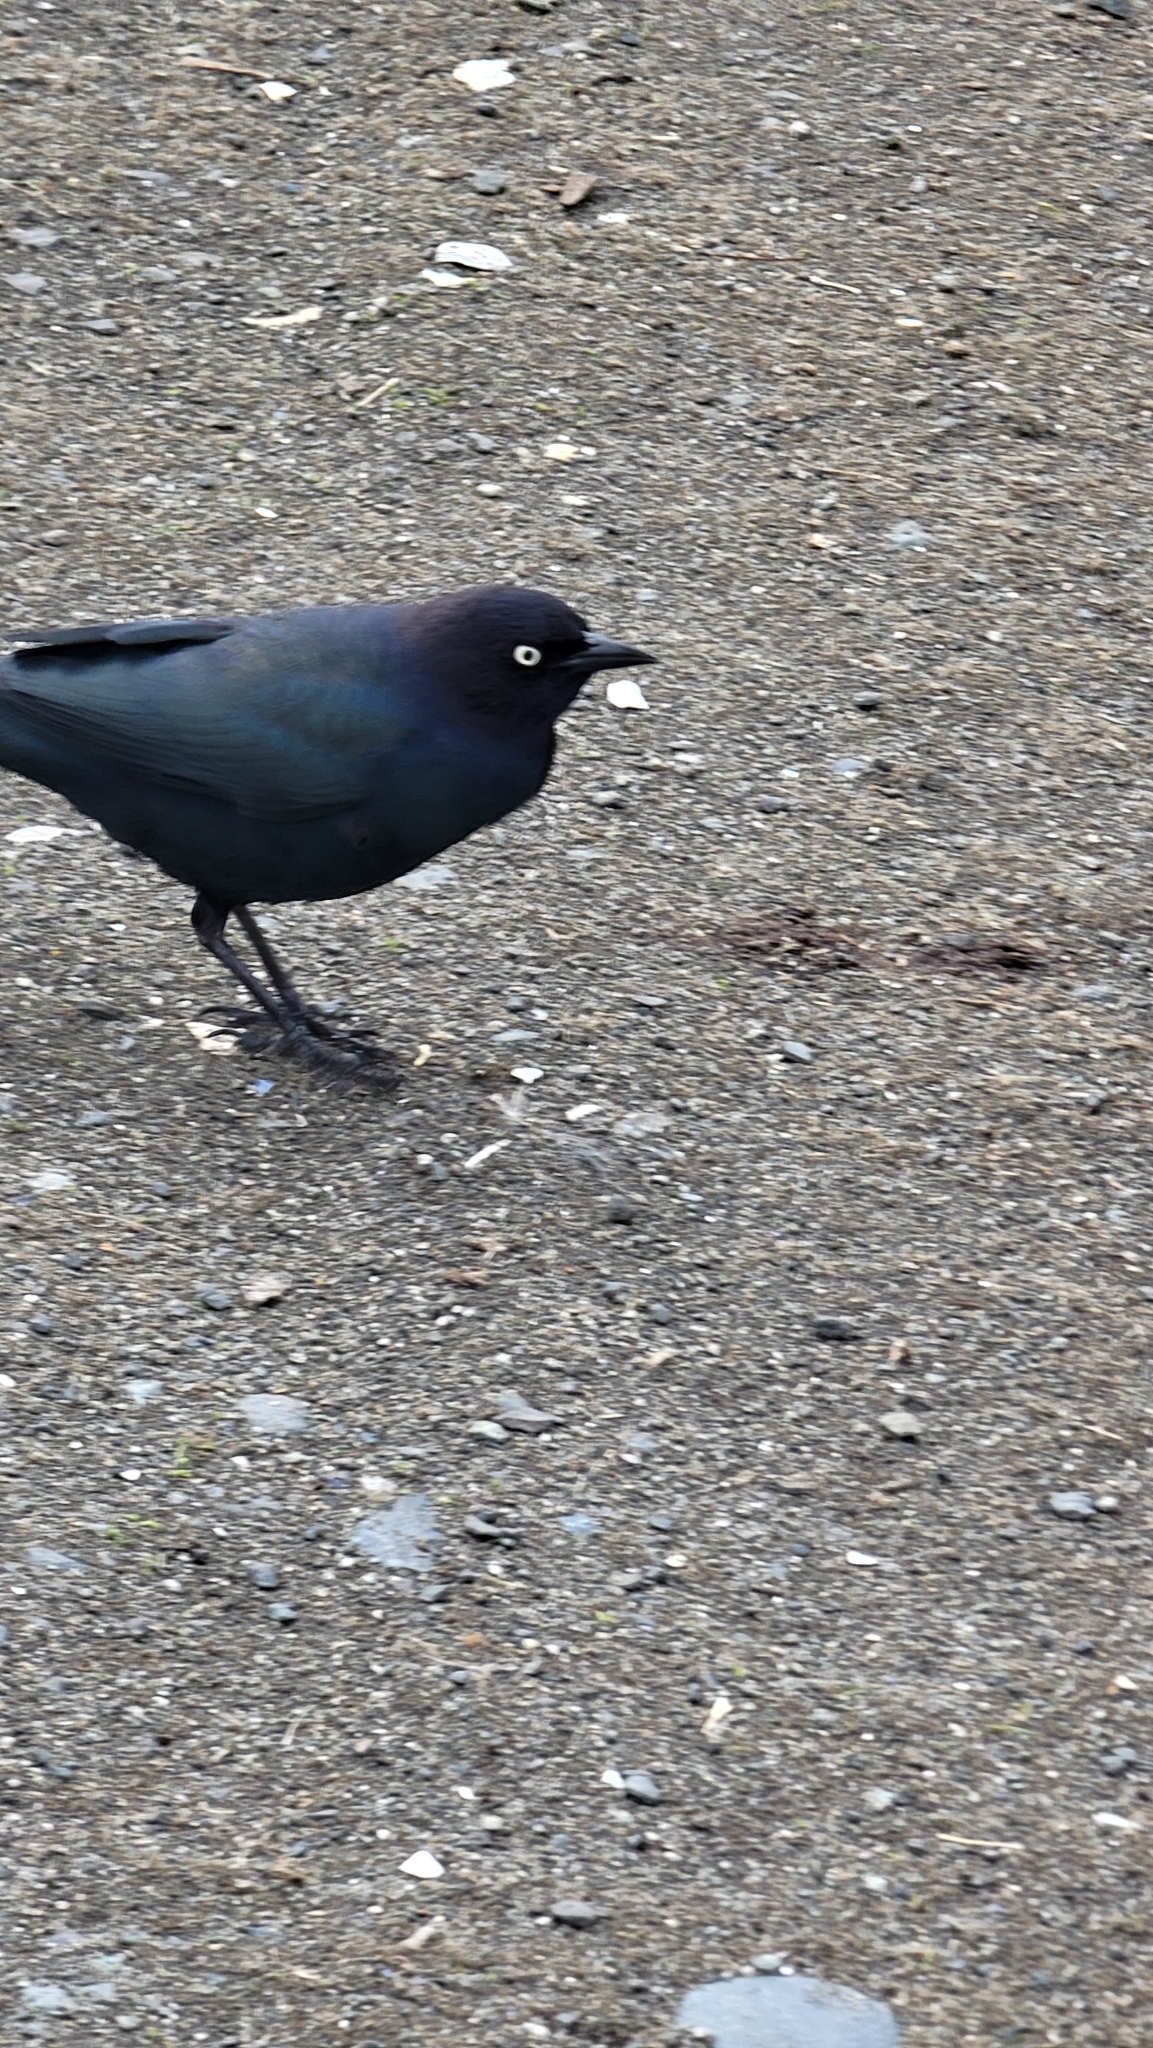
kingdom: Animalia
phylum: Chordata
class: Aves
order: Passeriformes
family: Icteridae
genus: Euphagus
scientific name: Euphagus cyanocephalus
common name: Brewer's blackbird
